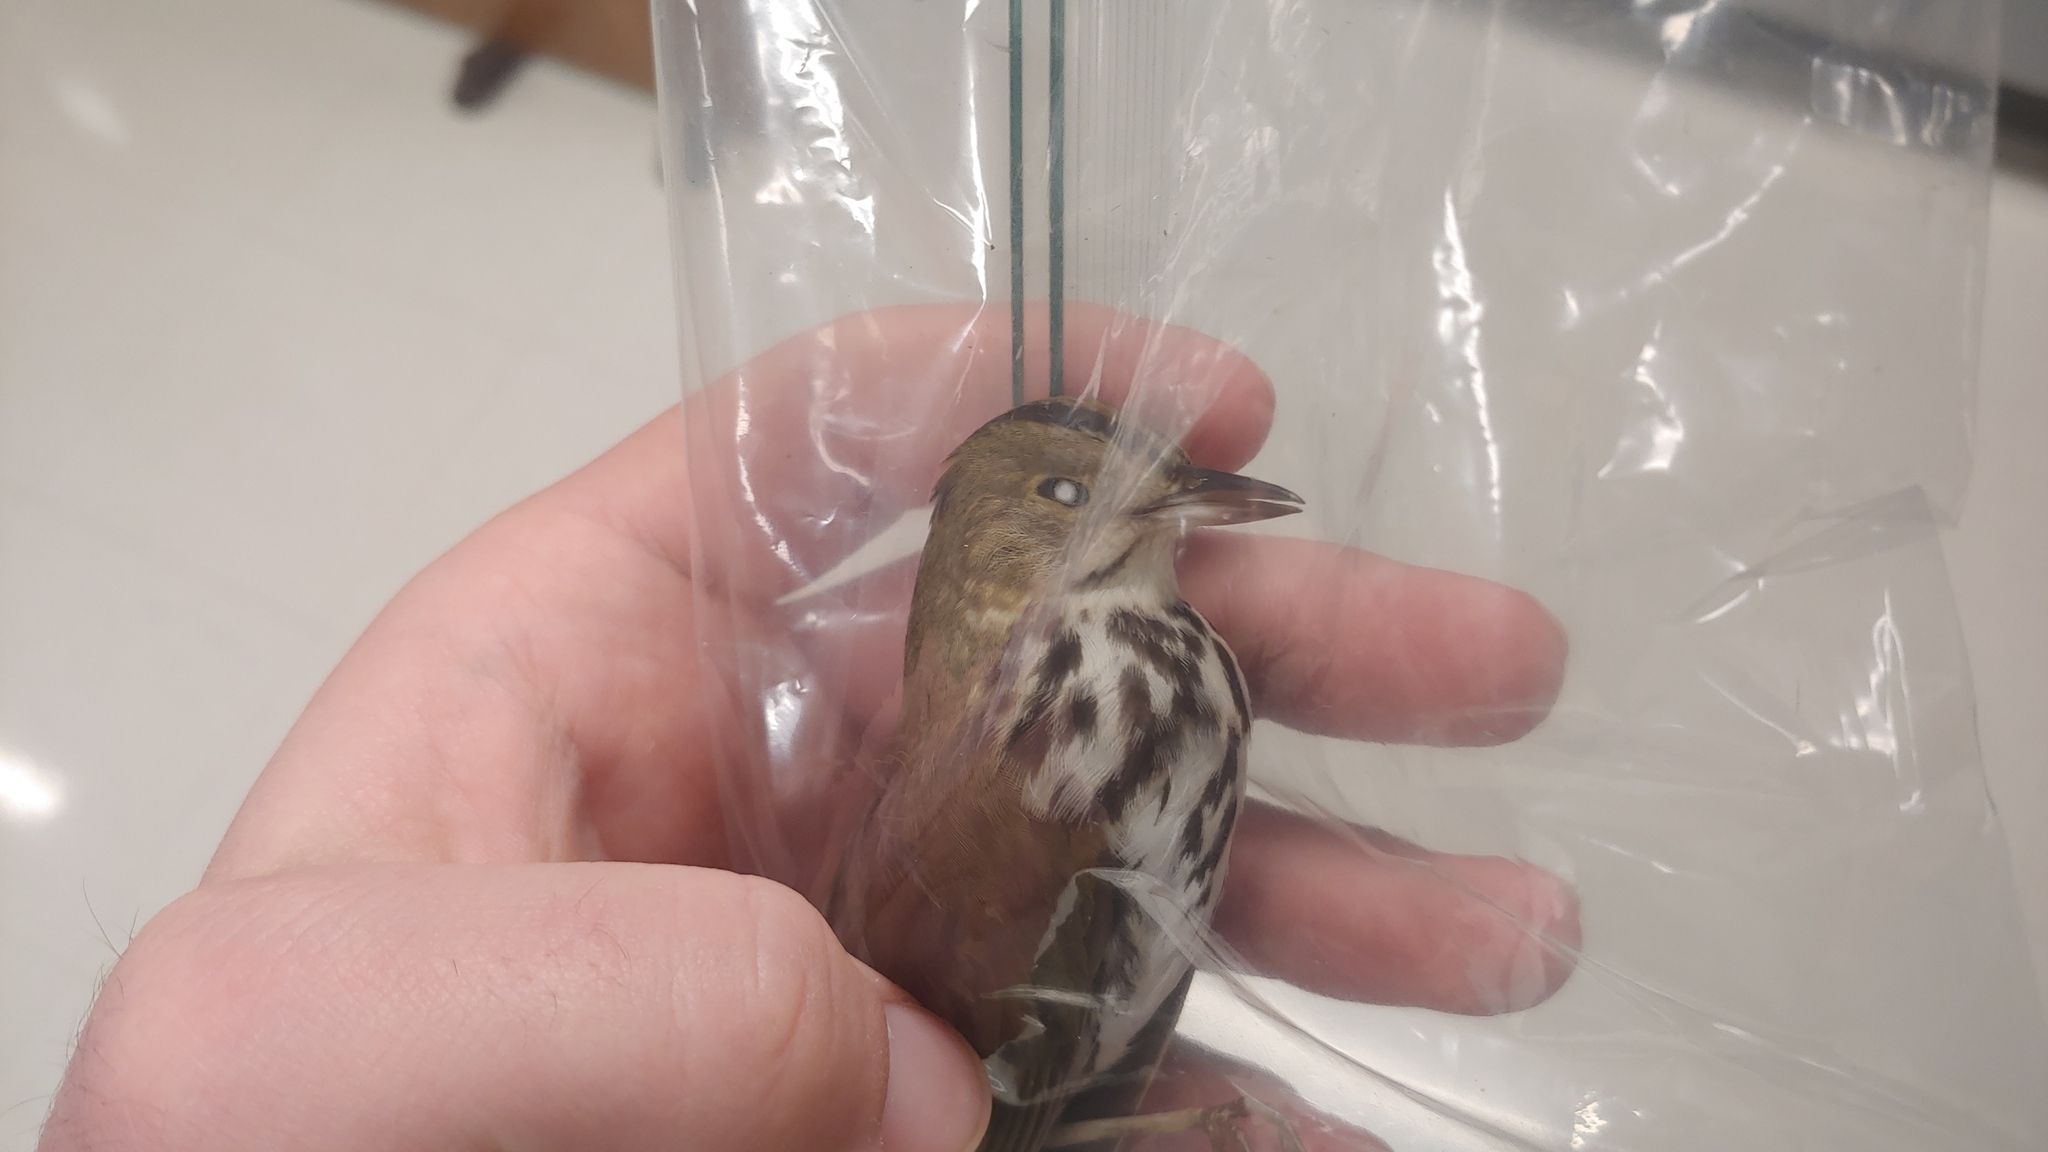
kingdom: Animalia
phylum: Chordata
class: Aves
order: Passeriformes
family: Parulidae
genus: Seiurus
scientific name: Seiurus aurocapilla
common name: Ovenbird
